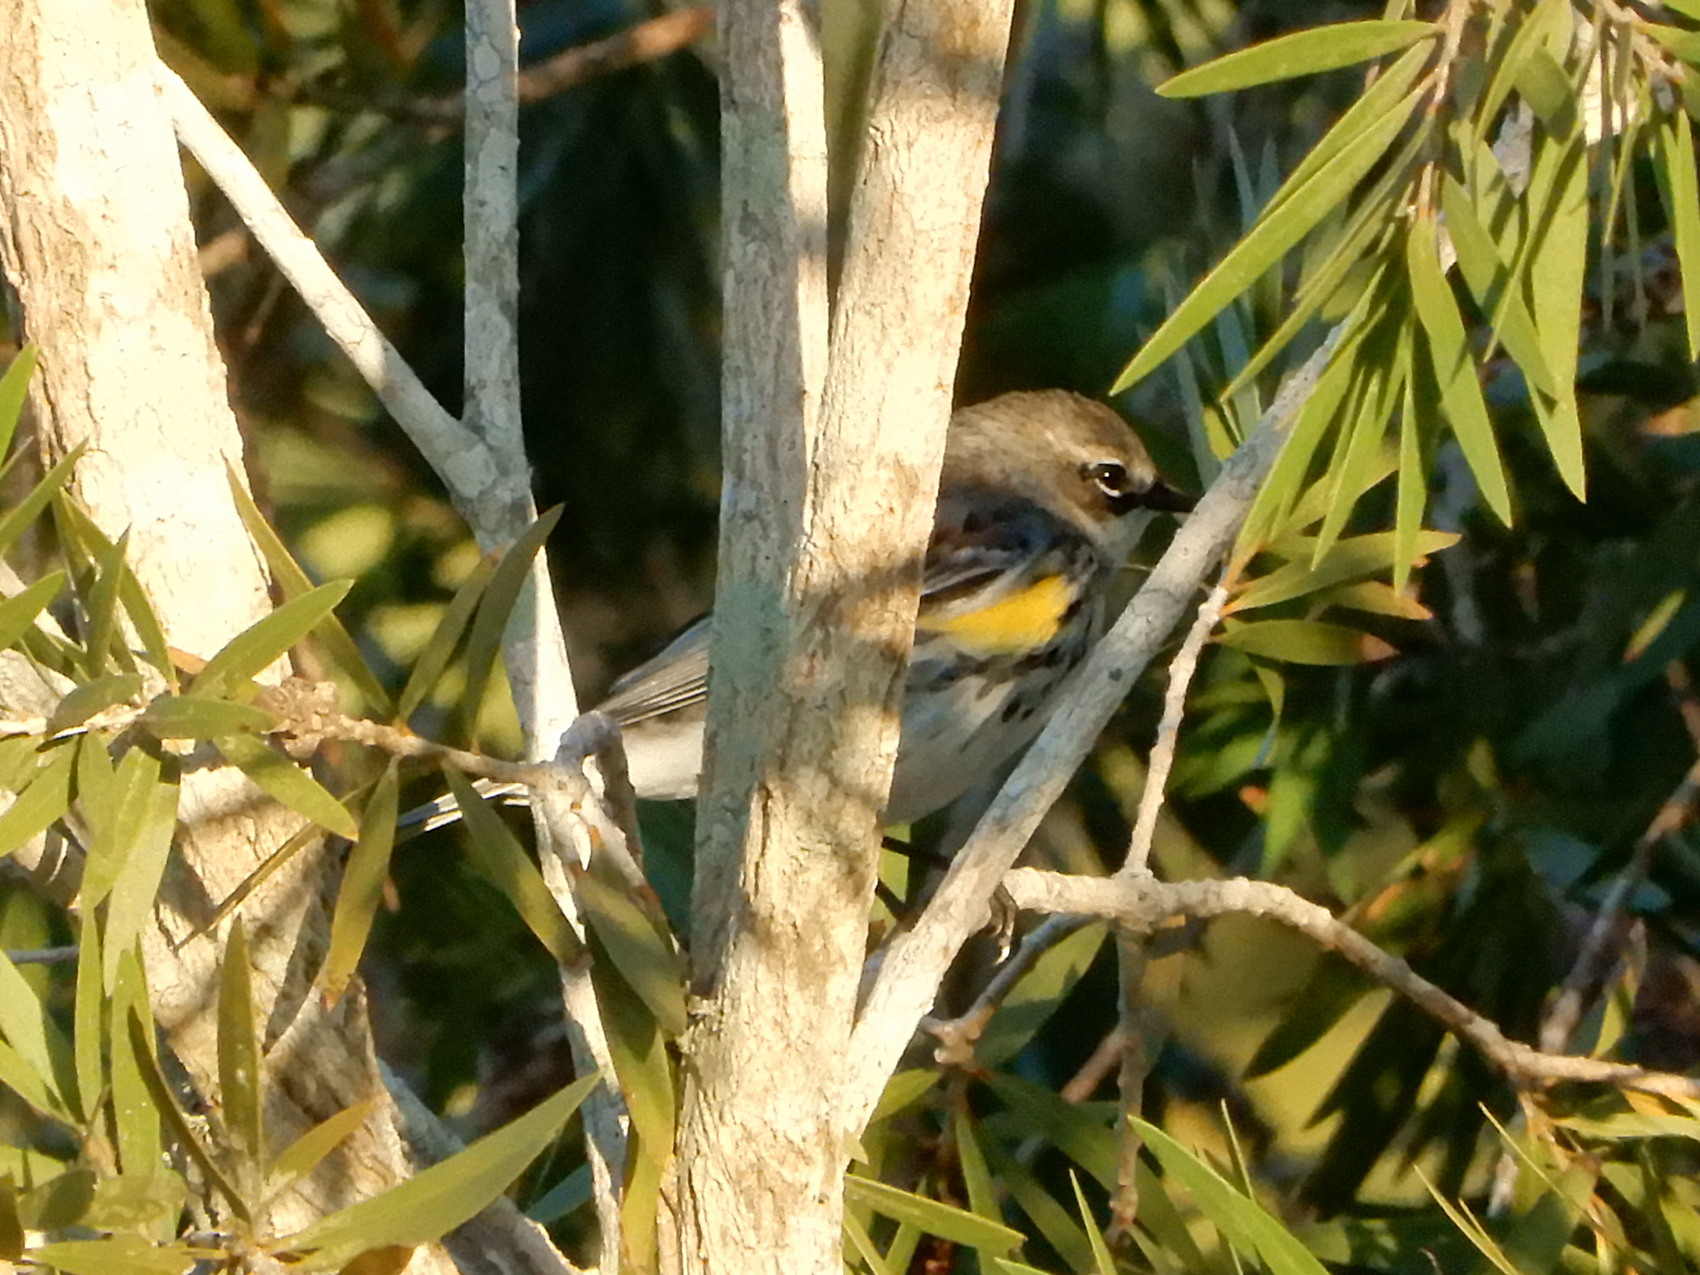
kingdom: Animalia
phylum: Chordata
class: Aves
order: Passeriformes
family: Parulidae
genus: Setophaga
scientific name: Setophaga coronata
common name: Myrtle warbler
